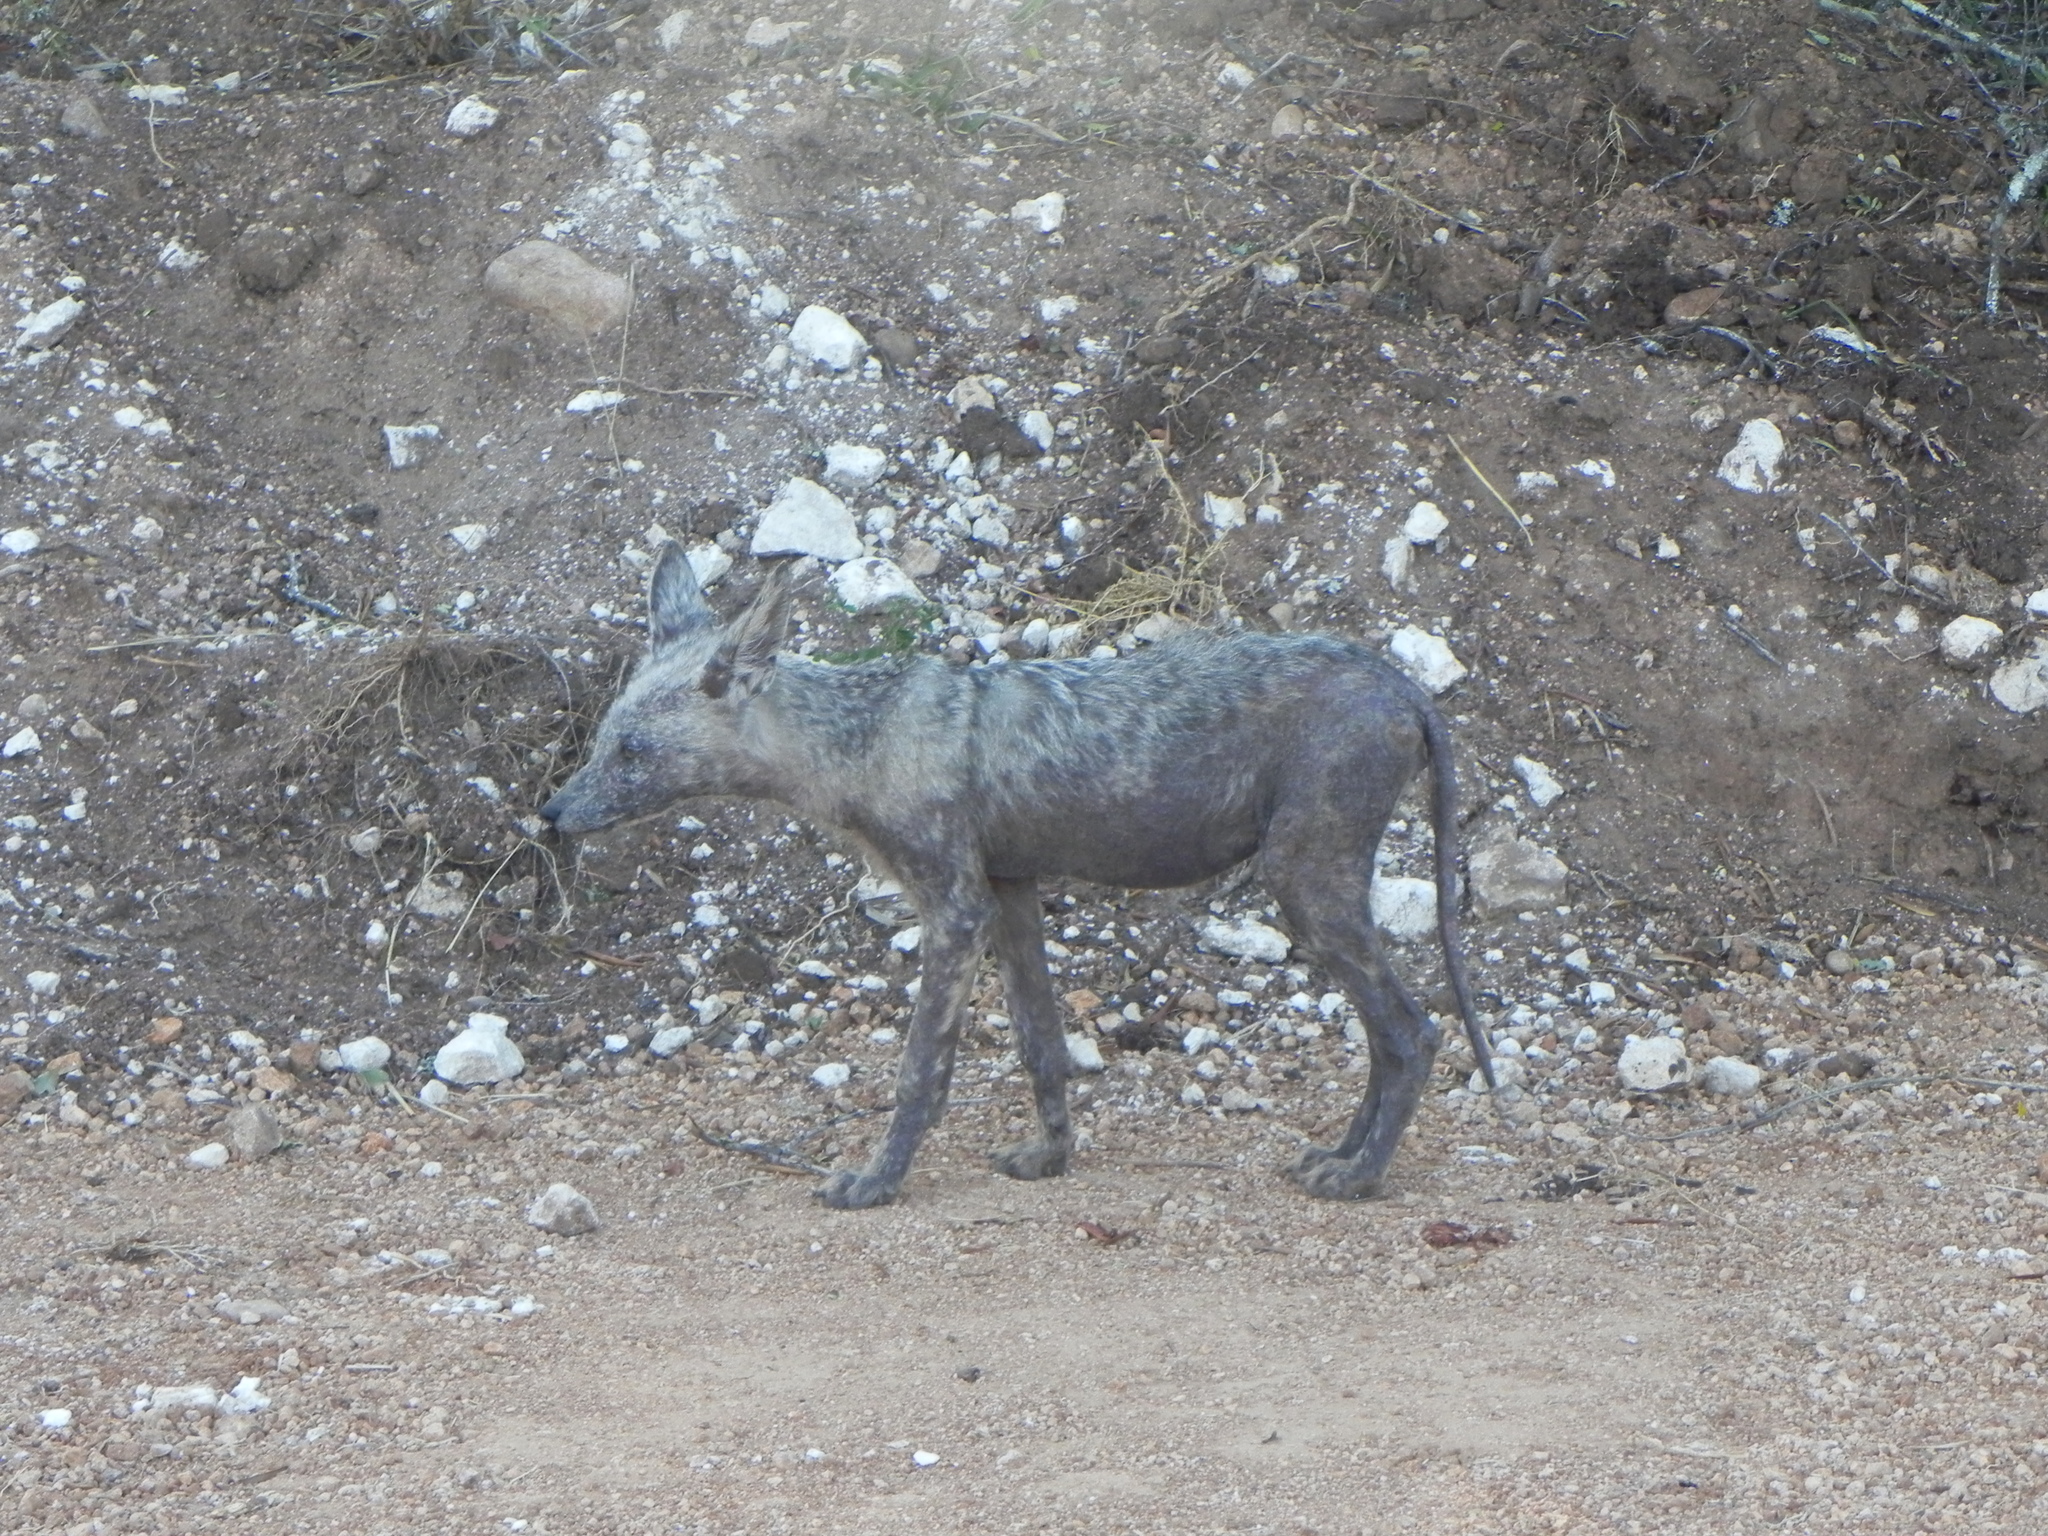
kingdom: Animalia
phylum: Chordata
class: Mammalia
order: Carnivora
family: Canidae
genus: Lupulella
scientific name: Lupulella
